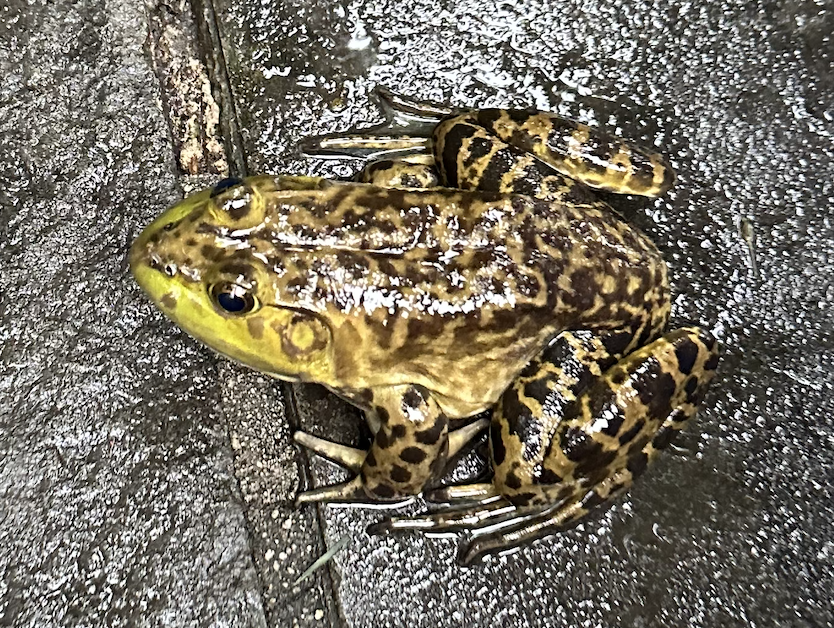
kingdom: Animalia
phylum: Chordata
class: Amphibia
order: Anura
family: Ranidae
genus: Lithobates
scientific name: Lithobates catesbeianus
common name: American bullfrog
